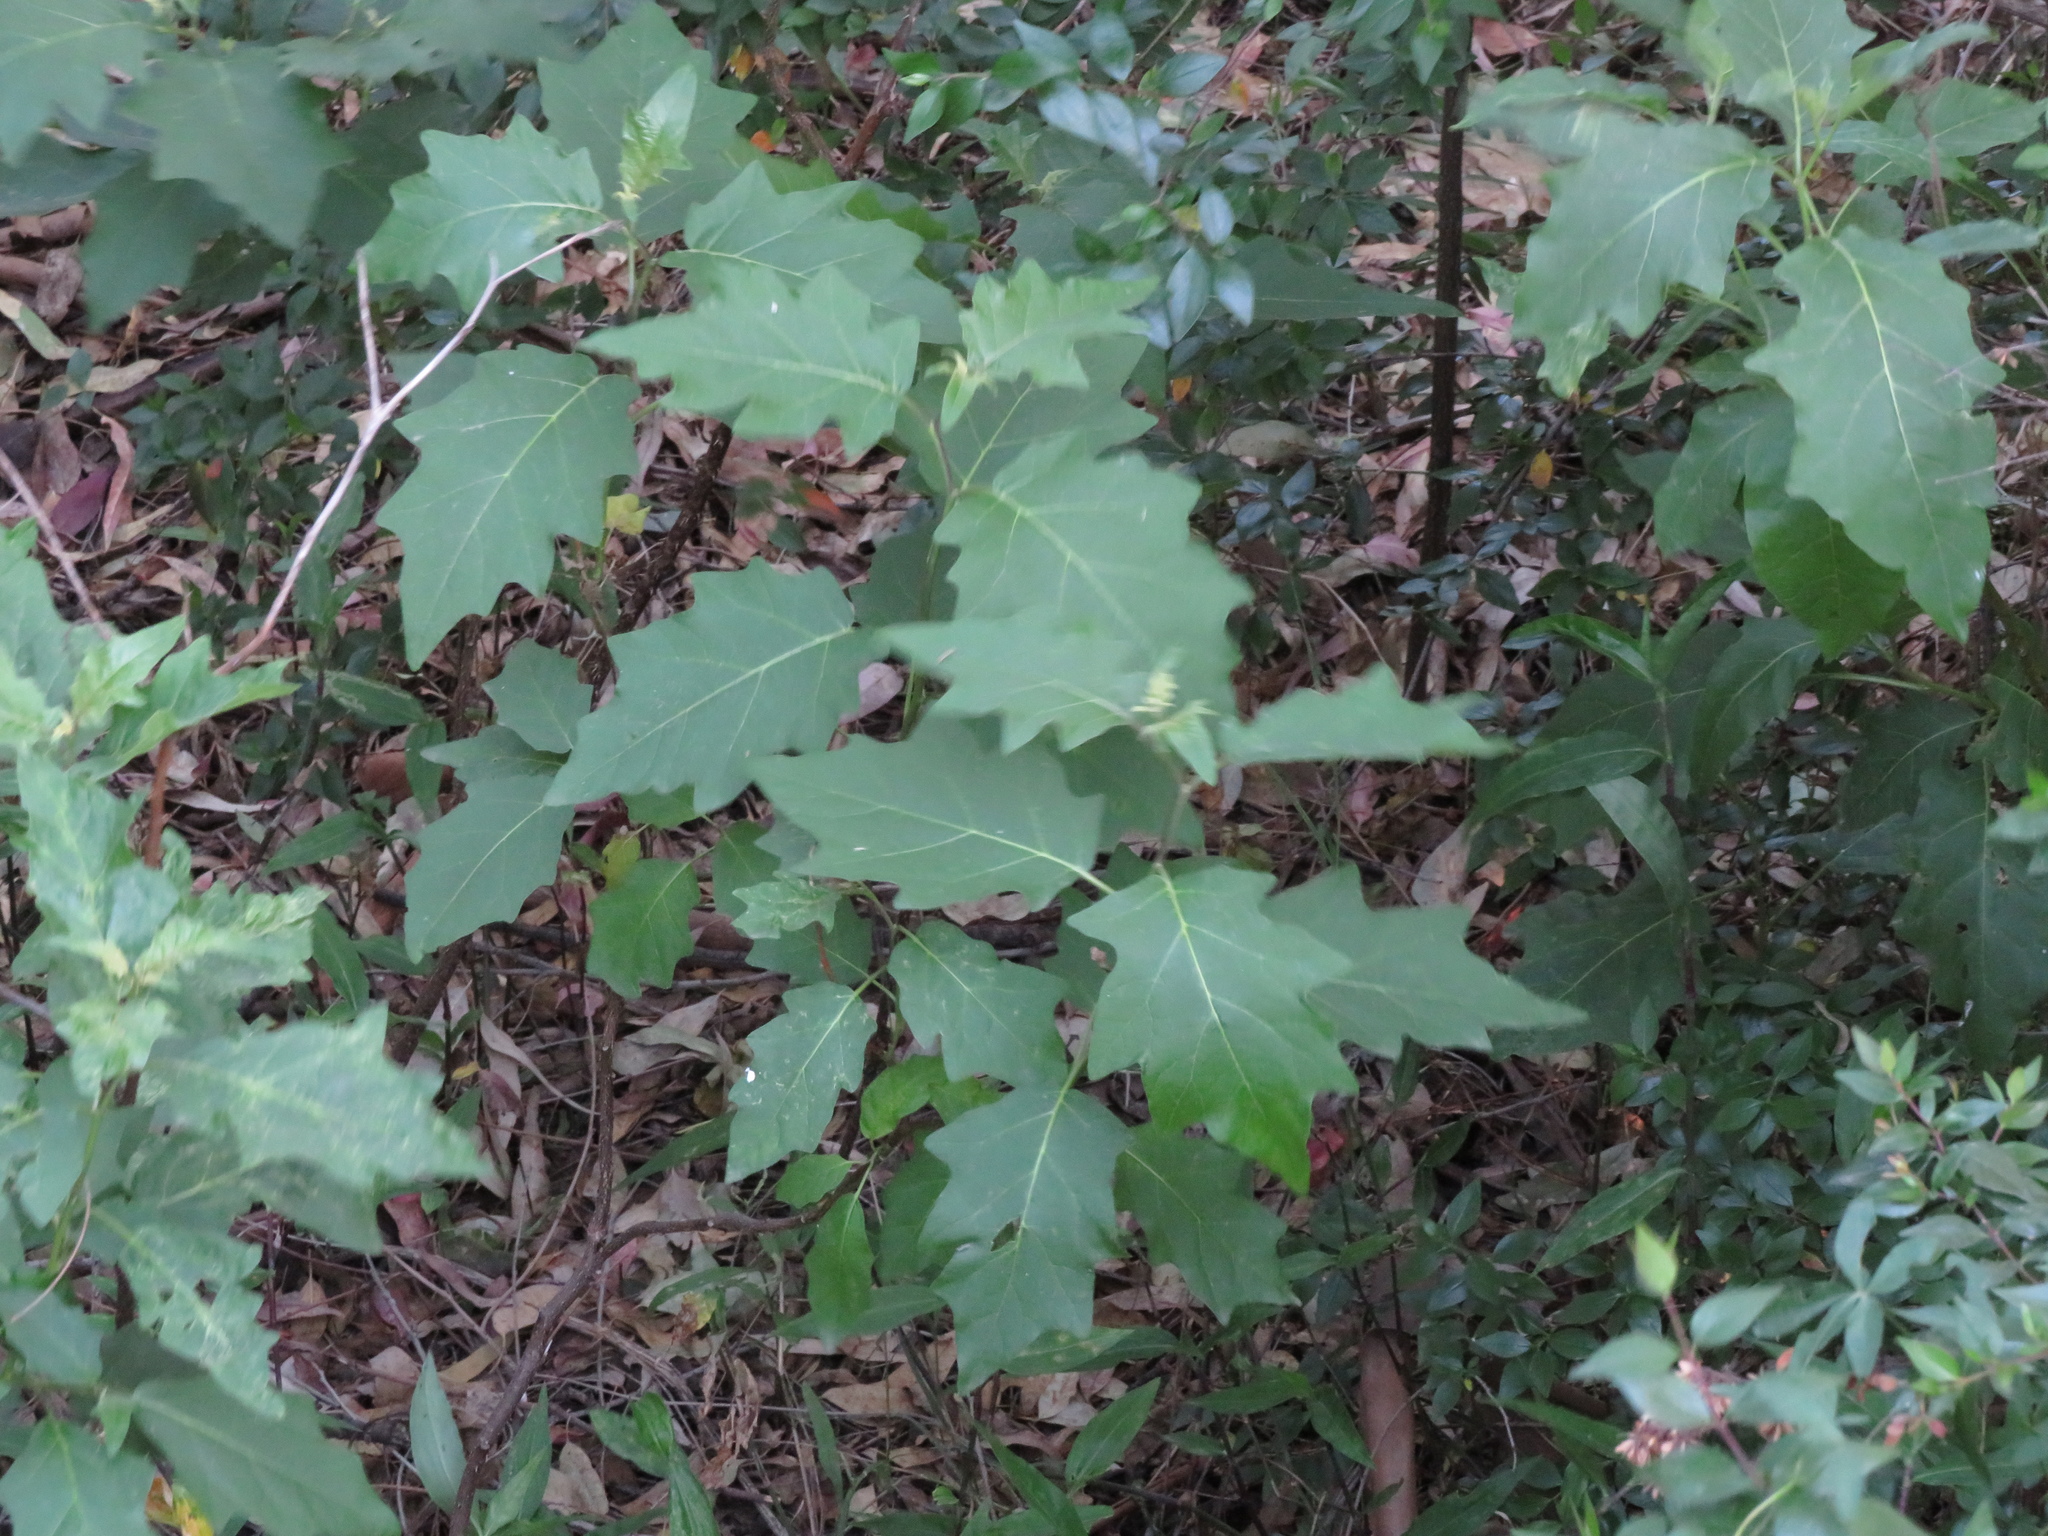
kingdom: Plantae
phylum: Tracheophyta
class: Magnoliopsida
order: Solanales
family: Solanaceae
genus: Solanum
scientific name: Solanum bonariense
